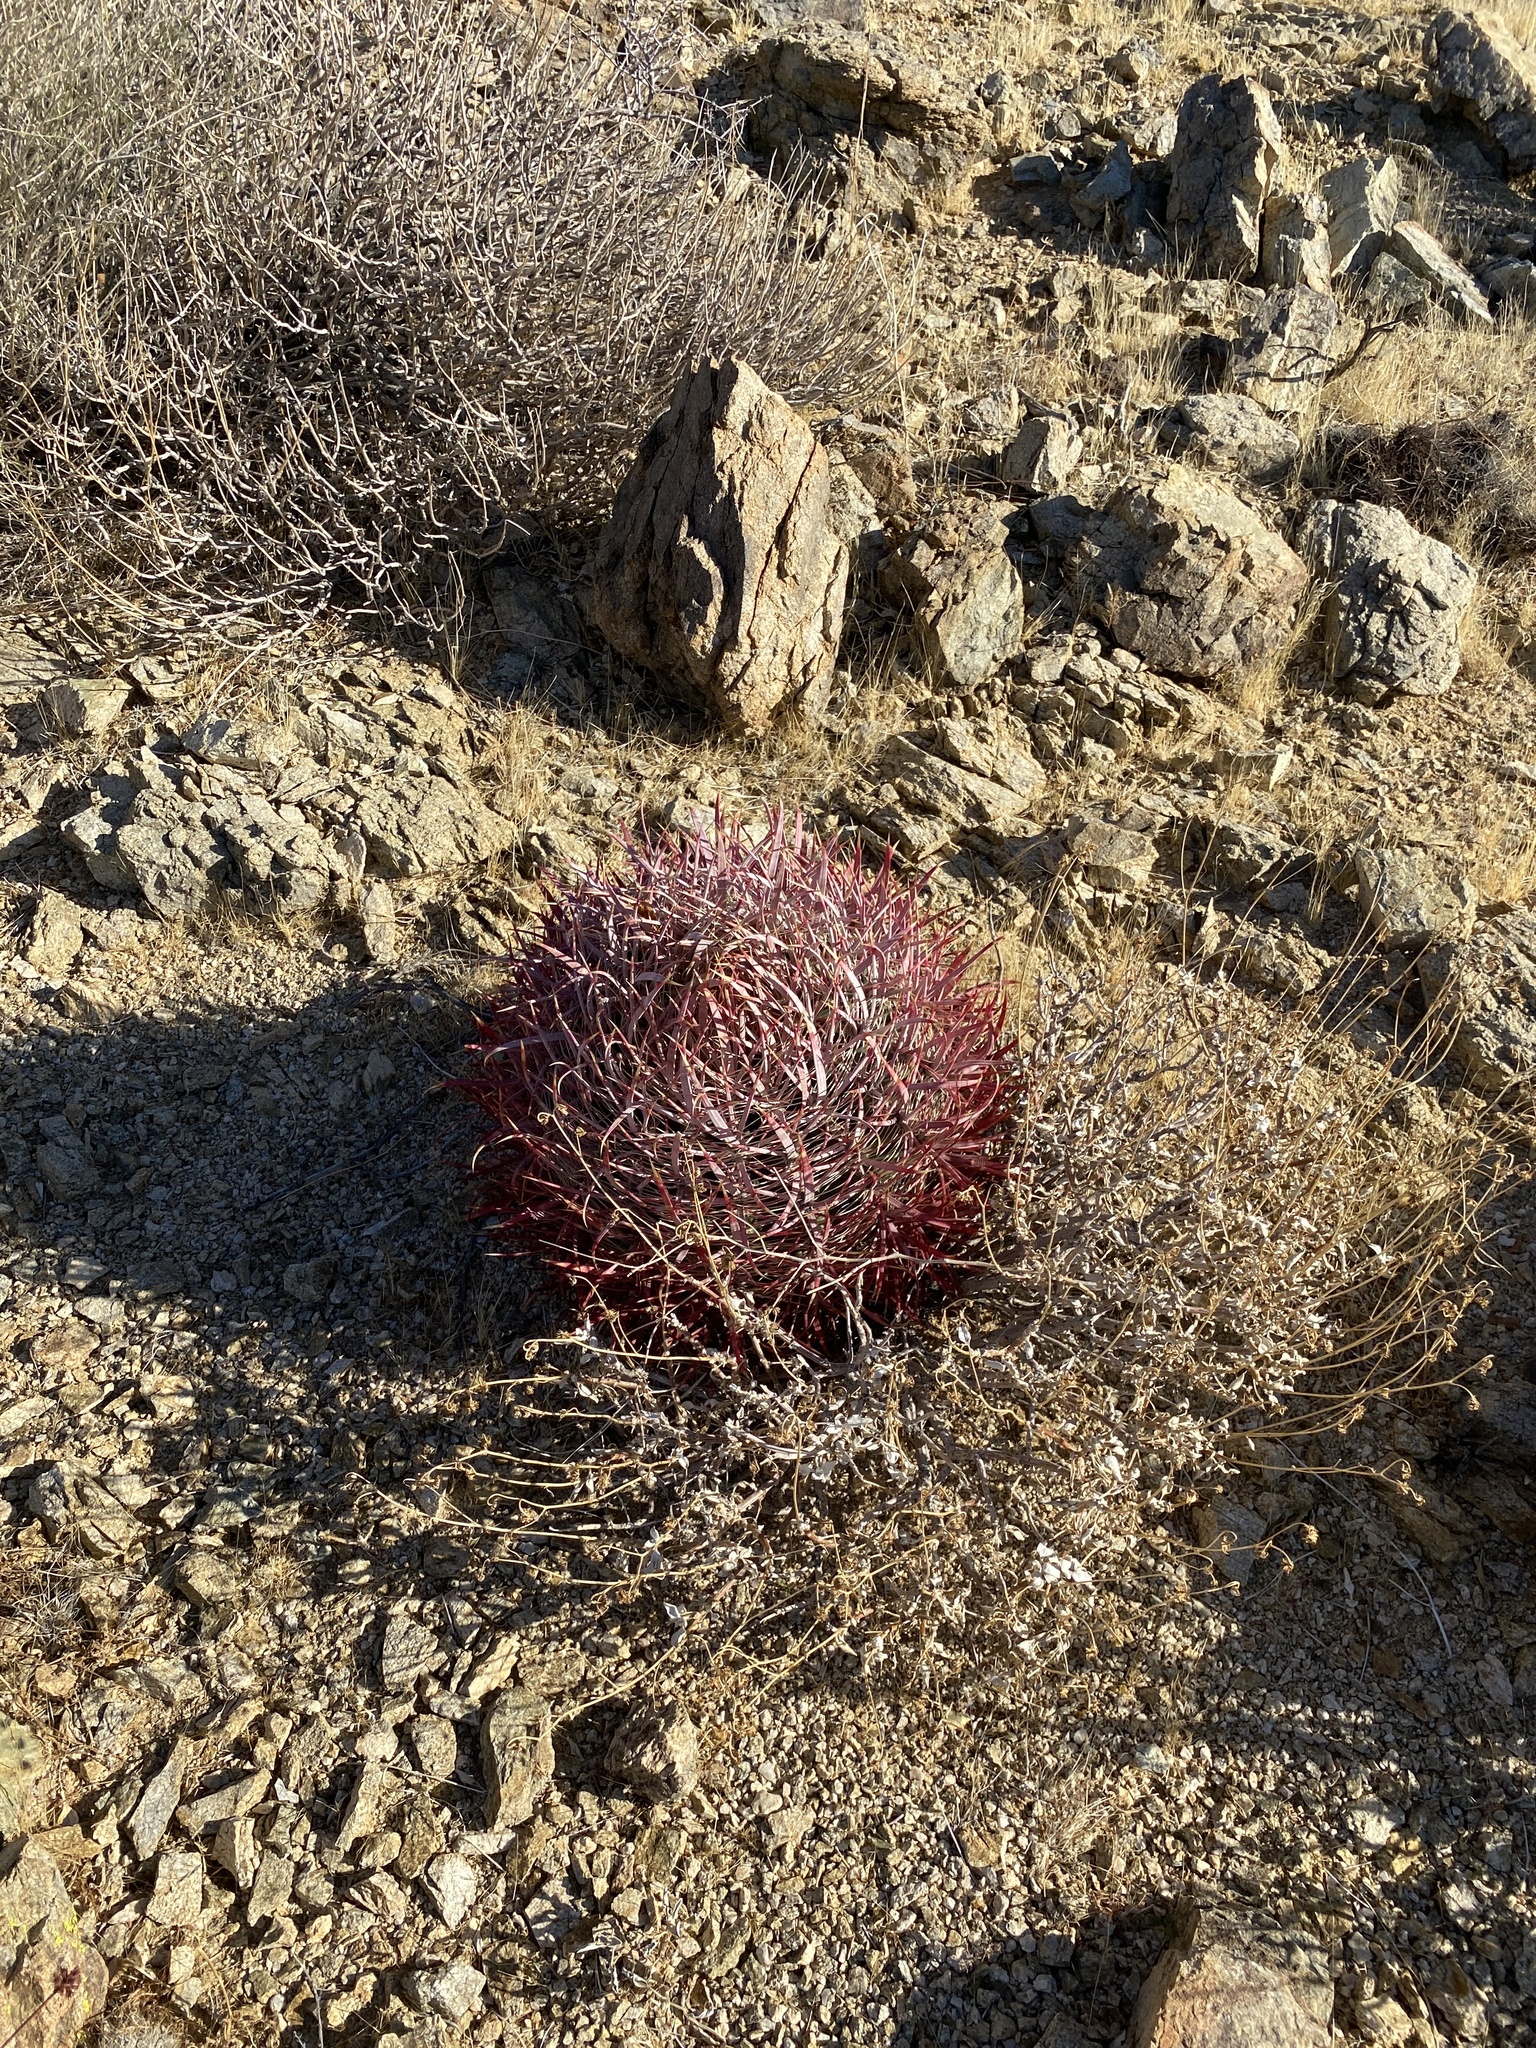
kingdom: Plantae
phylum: Tracheophyta
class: Magnoliopsida
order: Caryophyllales
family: Cactaceae
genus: Ferocactus
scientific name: Ferocactus cylindraceus
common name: California barrel cactus
